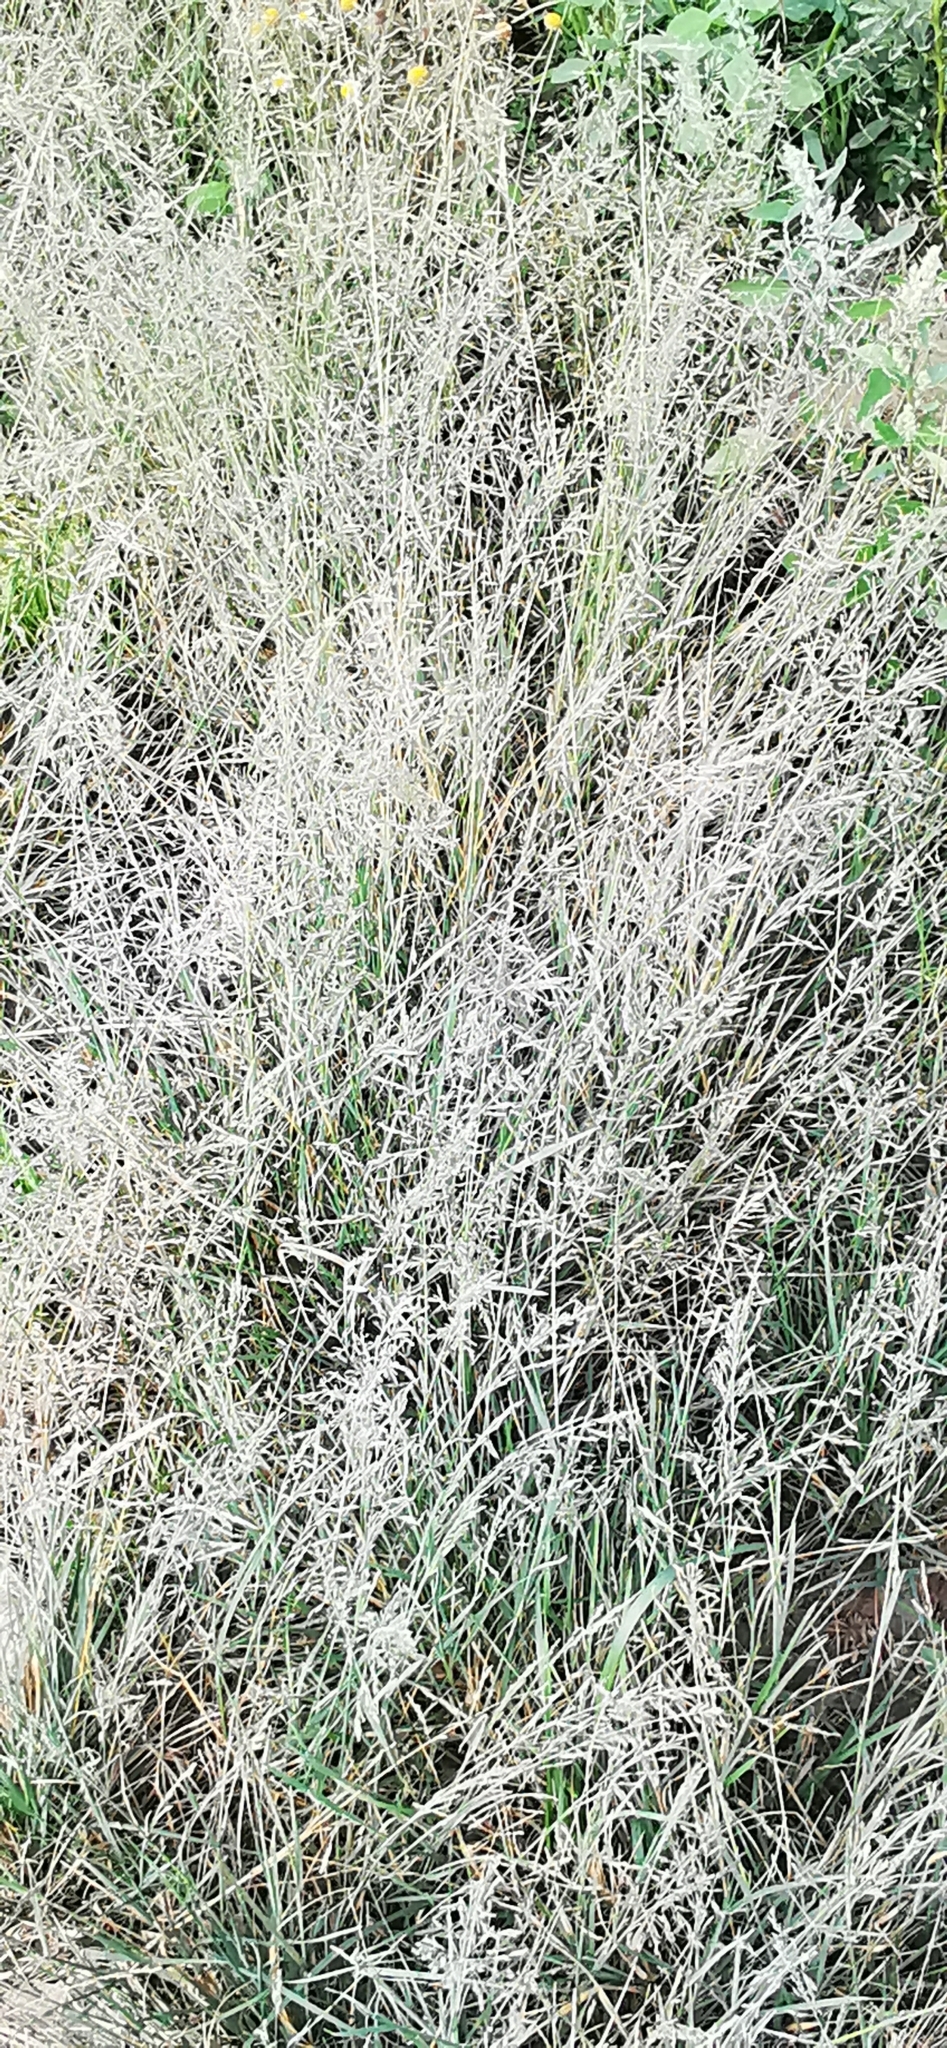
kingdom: Plantae
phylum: Tracheophyta
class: Liliopsida
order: Poales
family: Poaceae
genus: Puccinellia
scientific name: Puccinellia distans
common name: Weeping alkaligrass
